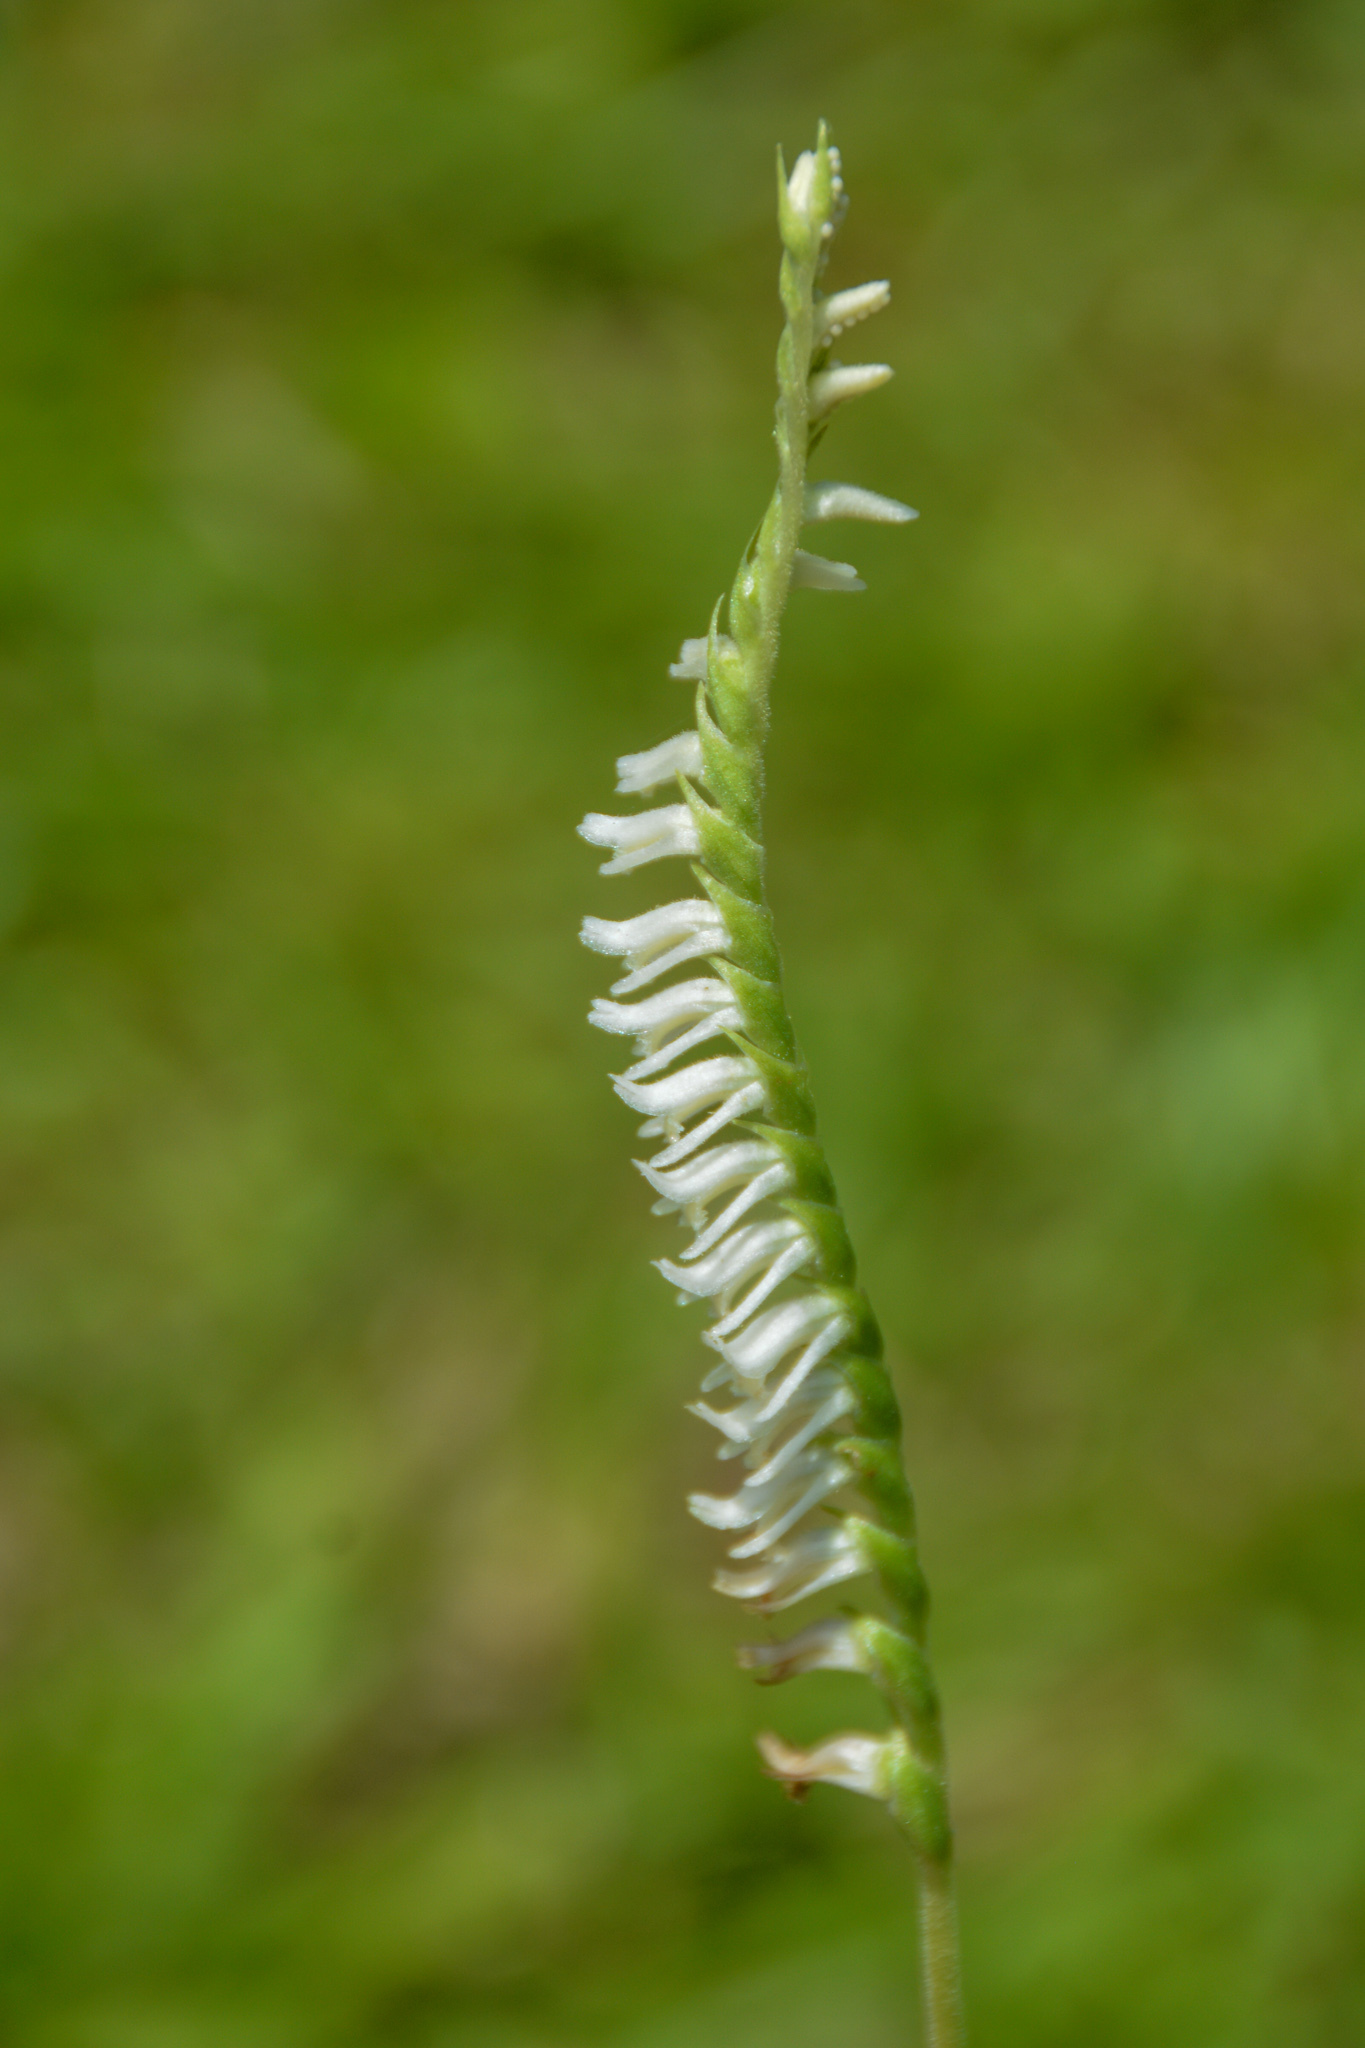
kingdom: Plantae
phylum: Tracheophyta
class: Liliopsida
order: Asparagales
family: Orchidaceae
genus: Spiranthes
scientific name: Spiranthes vernalis
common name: Spring ladies'-tresses
